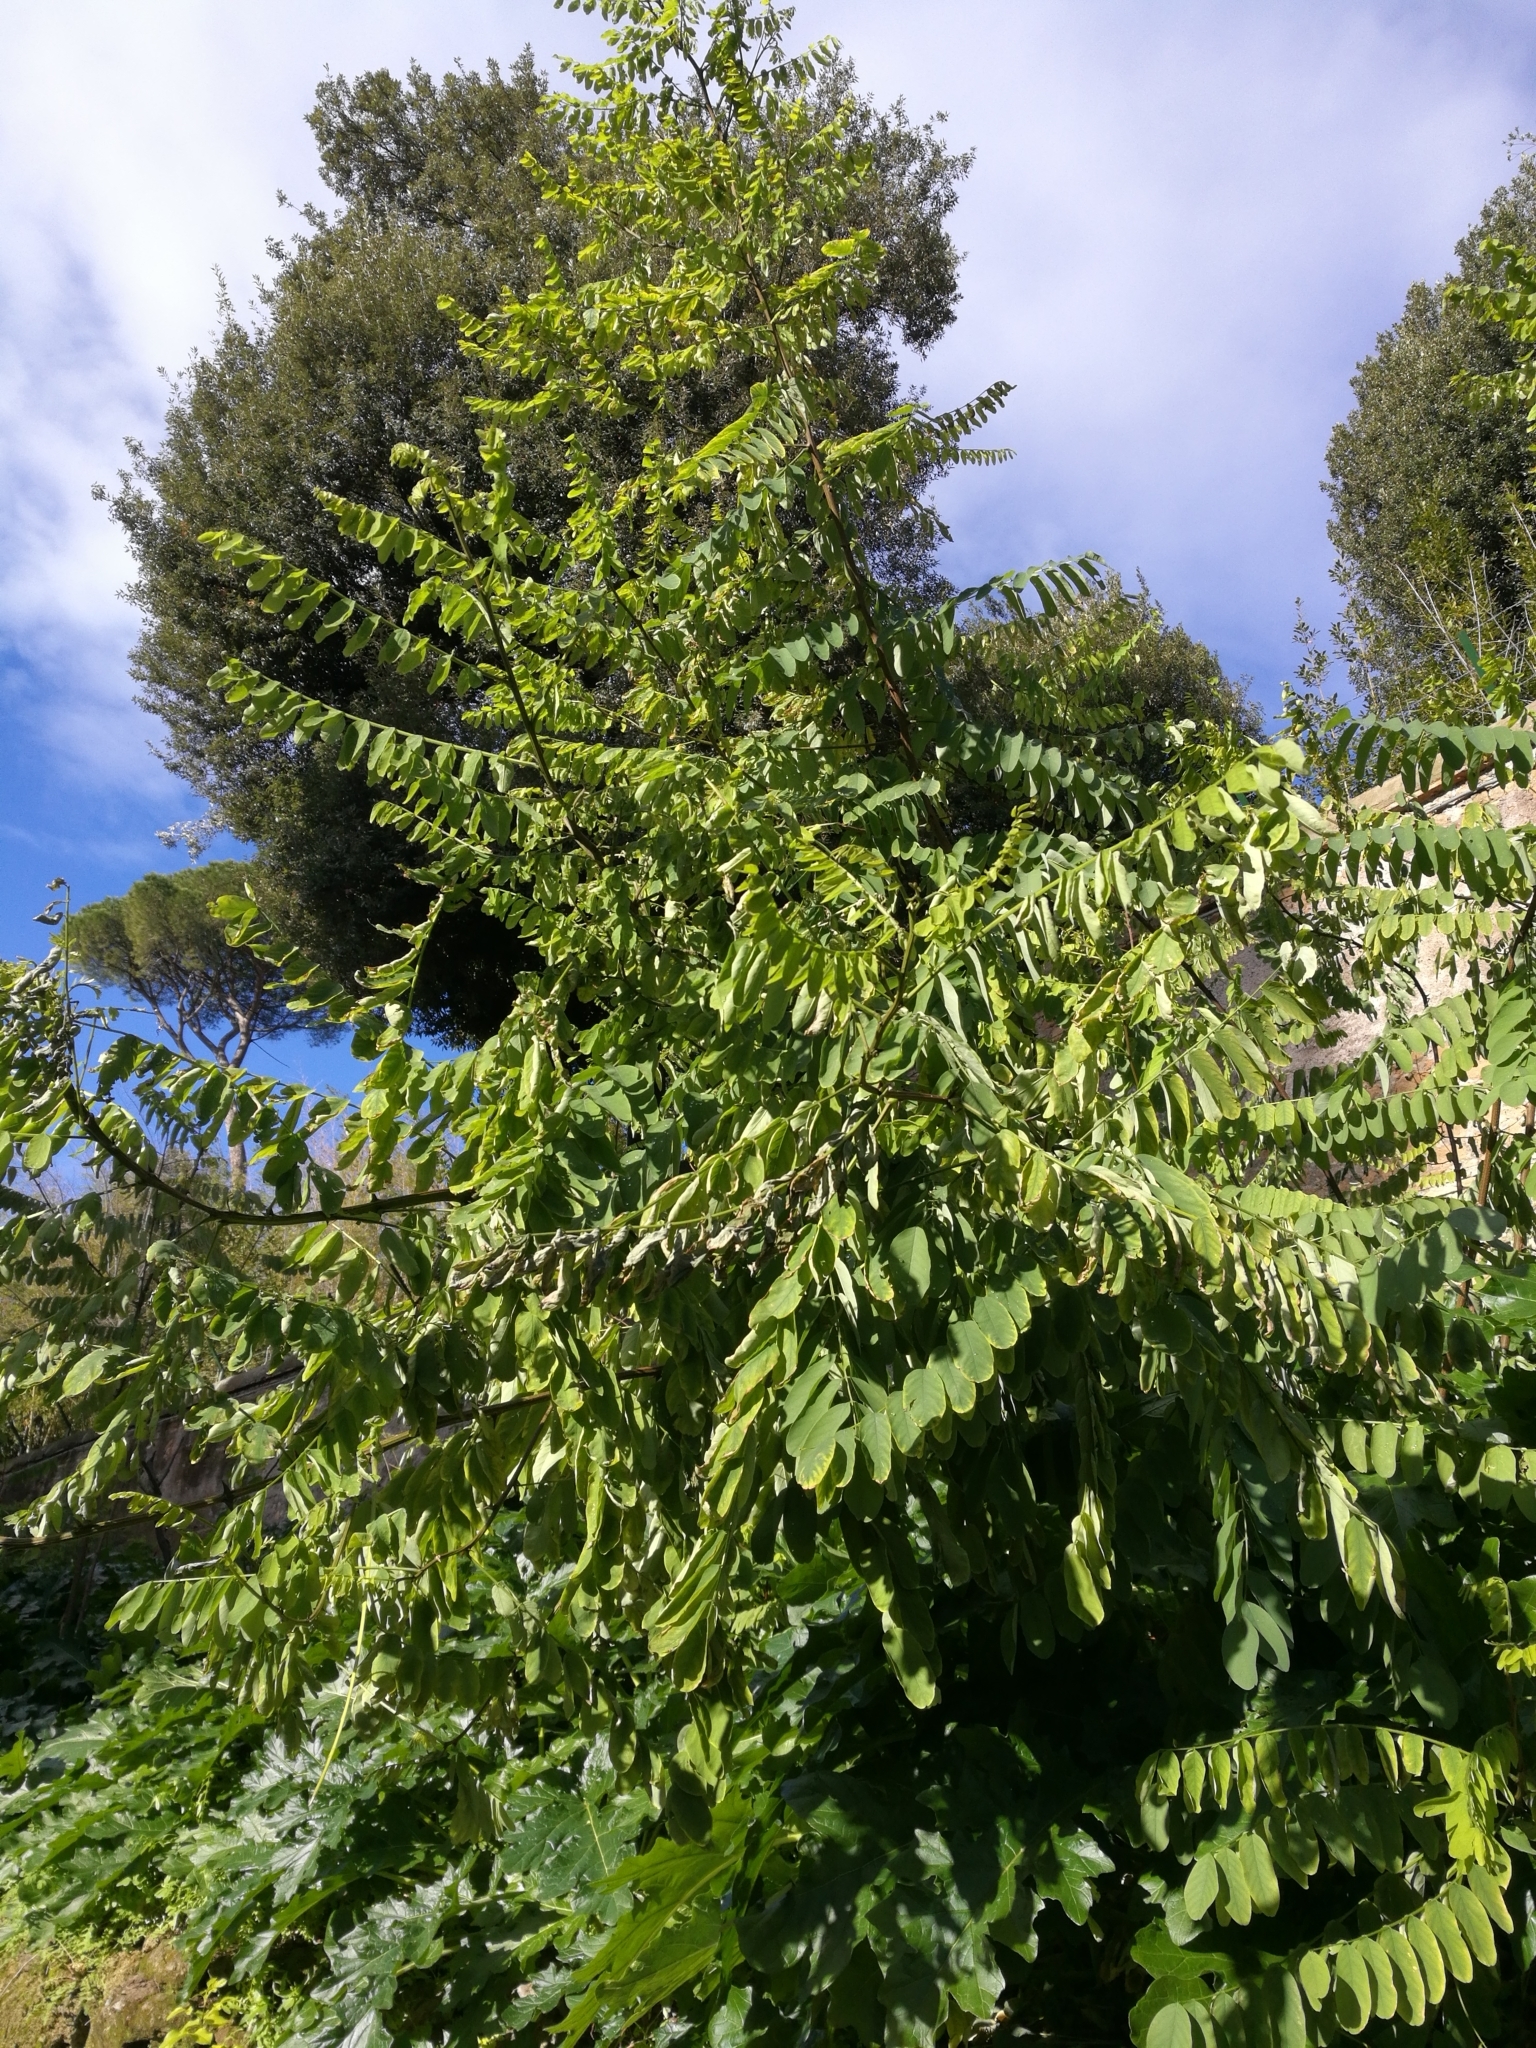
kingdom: Plantae
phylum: Tracheophyta
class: Magnoliopsida
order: Fabales
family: Fabaceae
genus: Robinia
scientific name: Robinia pseudoacacia
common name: Black locust
